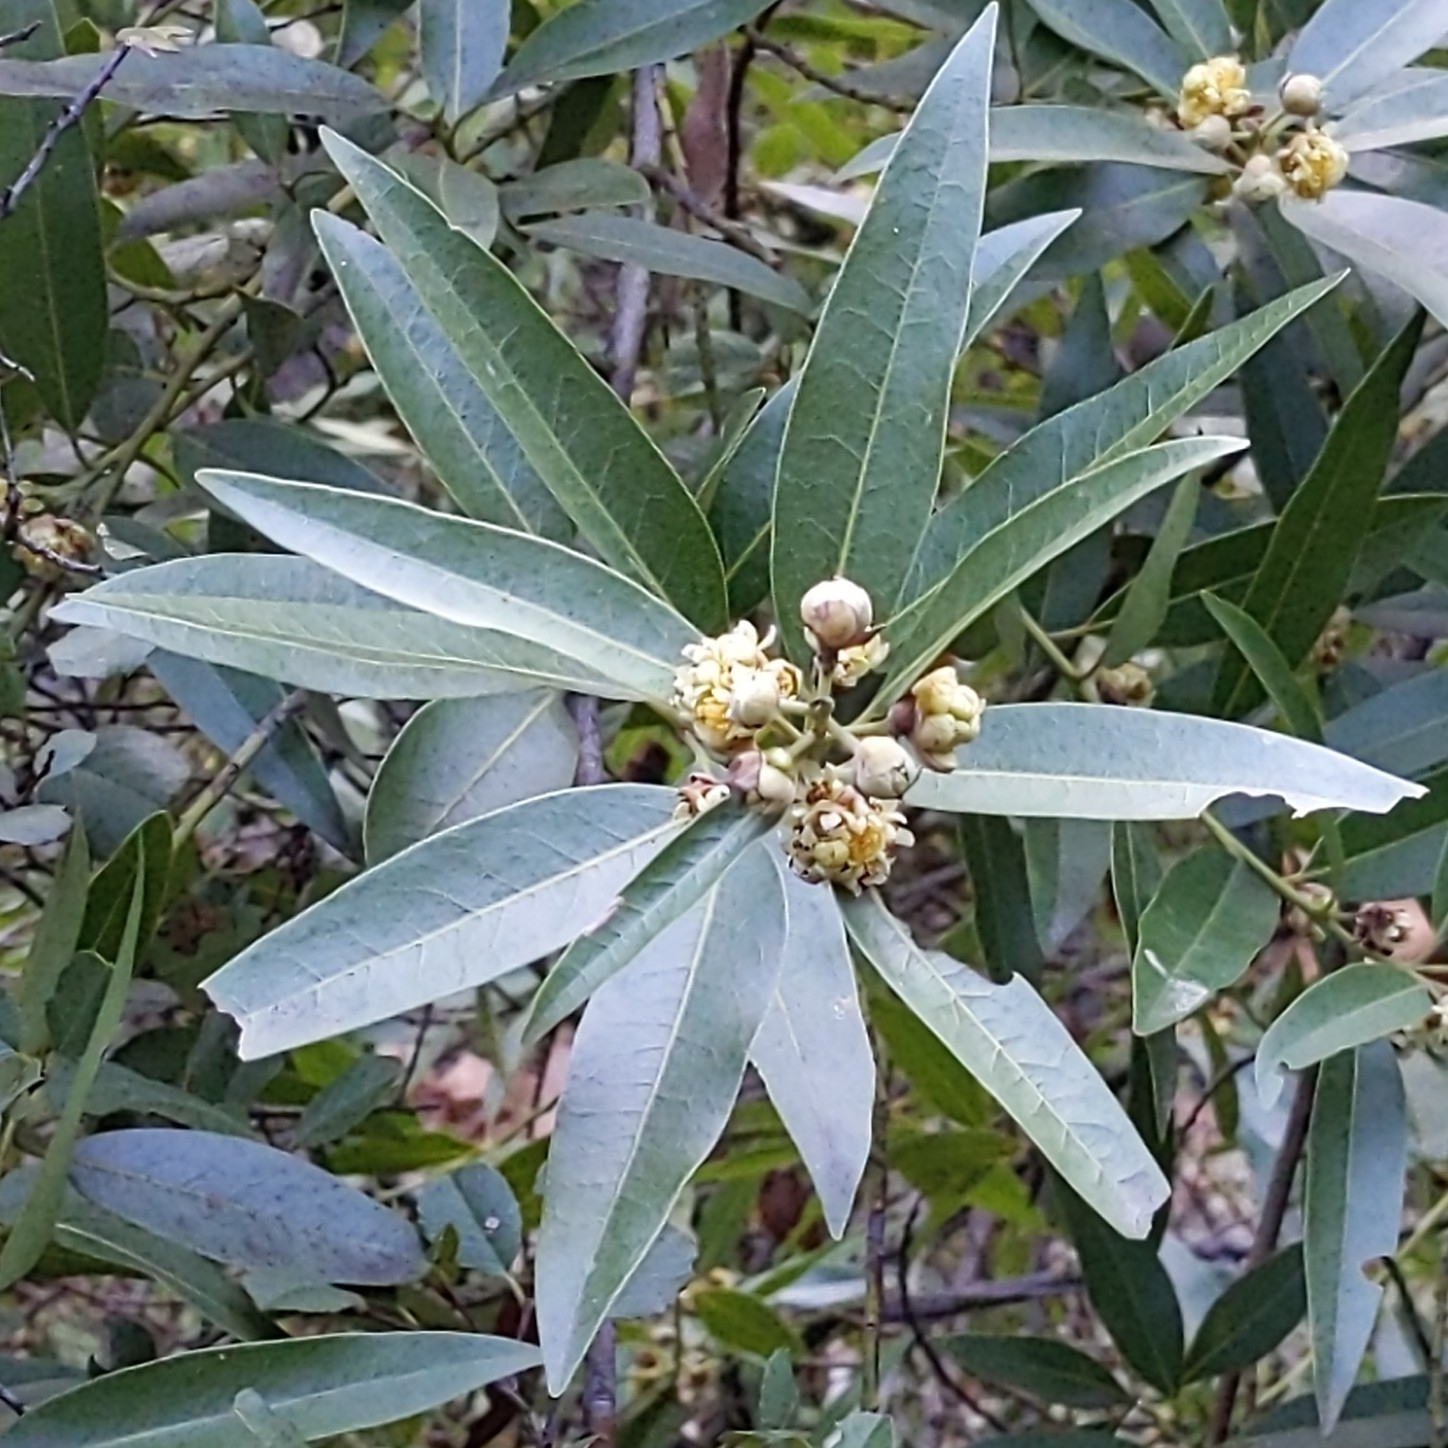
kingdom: Plantae
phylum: Tracheophyta
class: Magnoliopsida
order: Laurales
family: Lauraceae
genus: Umbellularia
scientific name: Umbellularia californica
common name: California bay
